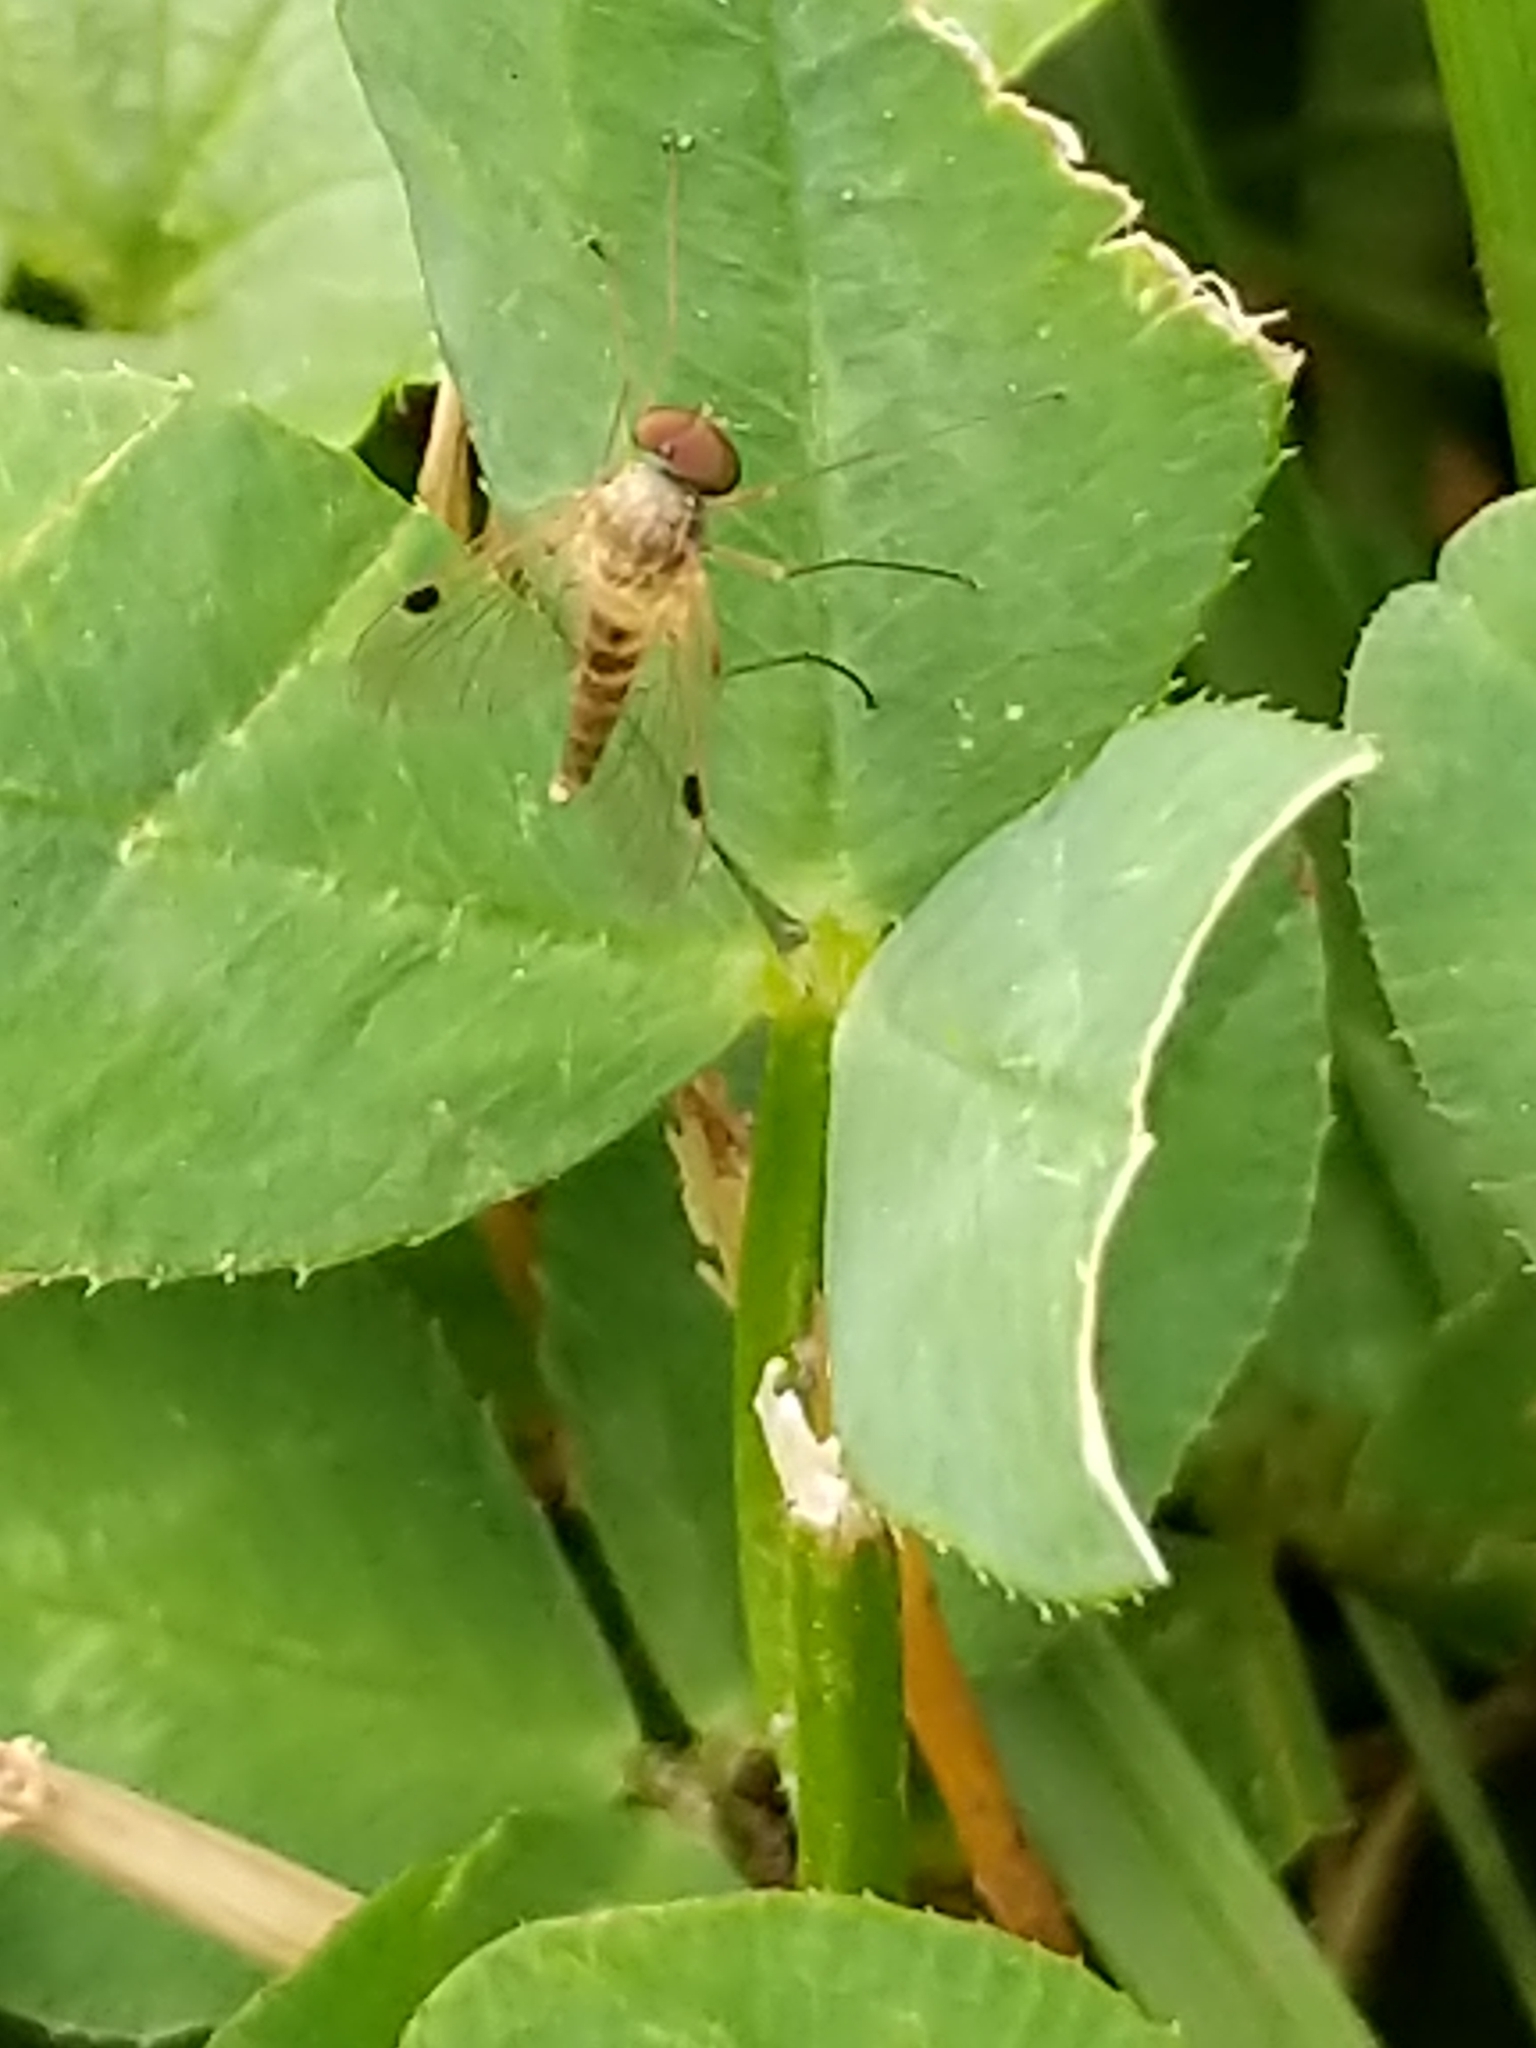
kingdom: Animalia
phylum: Arthropoda
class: Insecta
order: Diptera
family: Rhagionidae
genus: Chrysopilus
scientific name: Chrysopilus modestus
